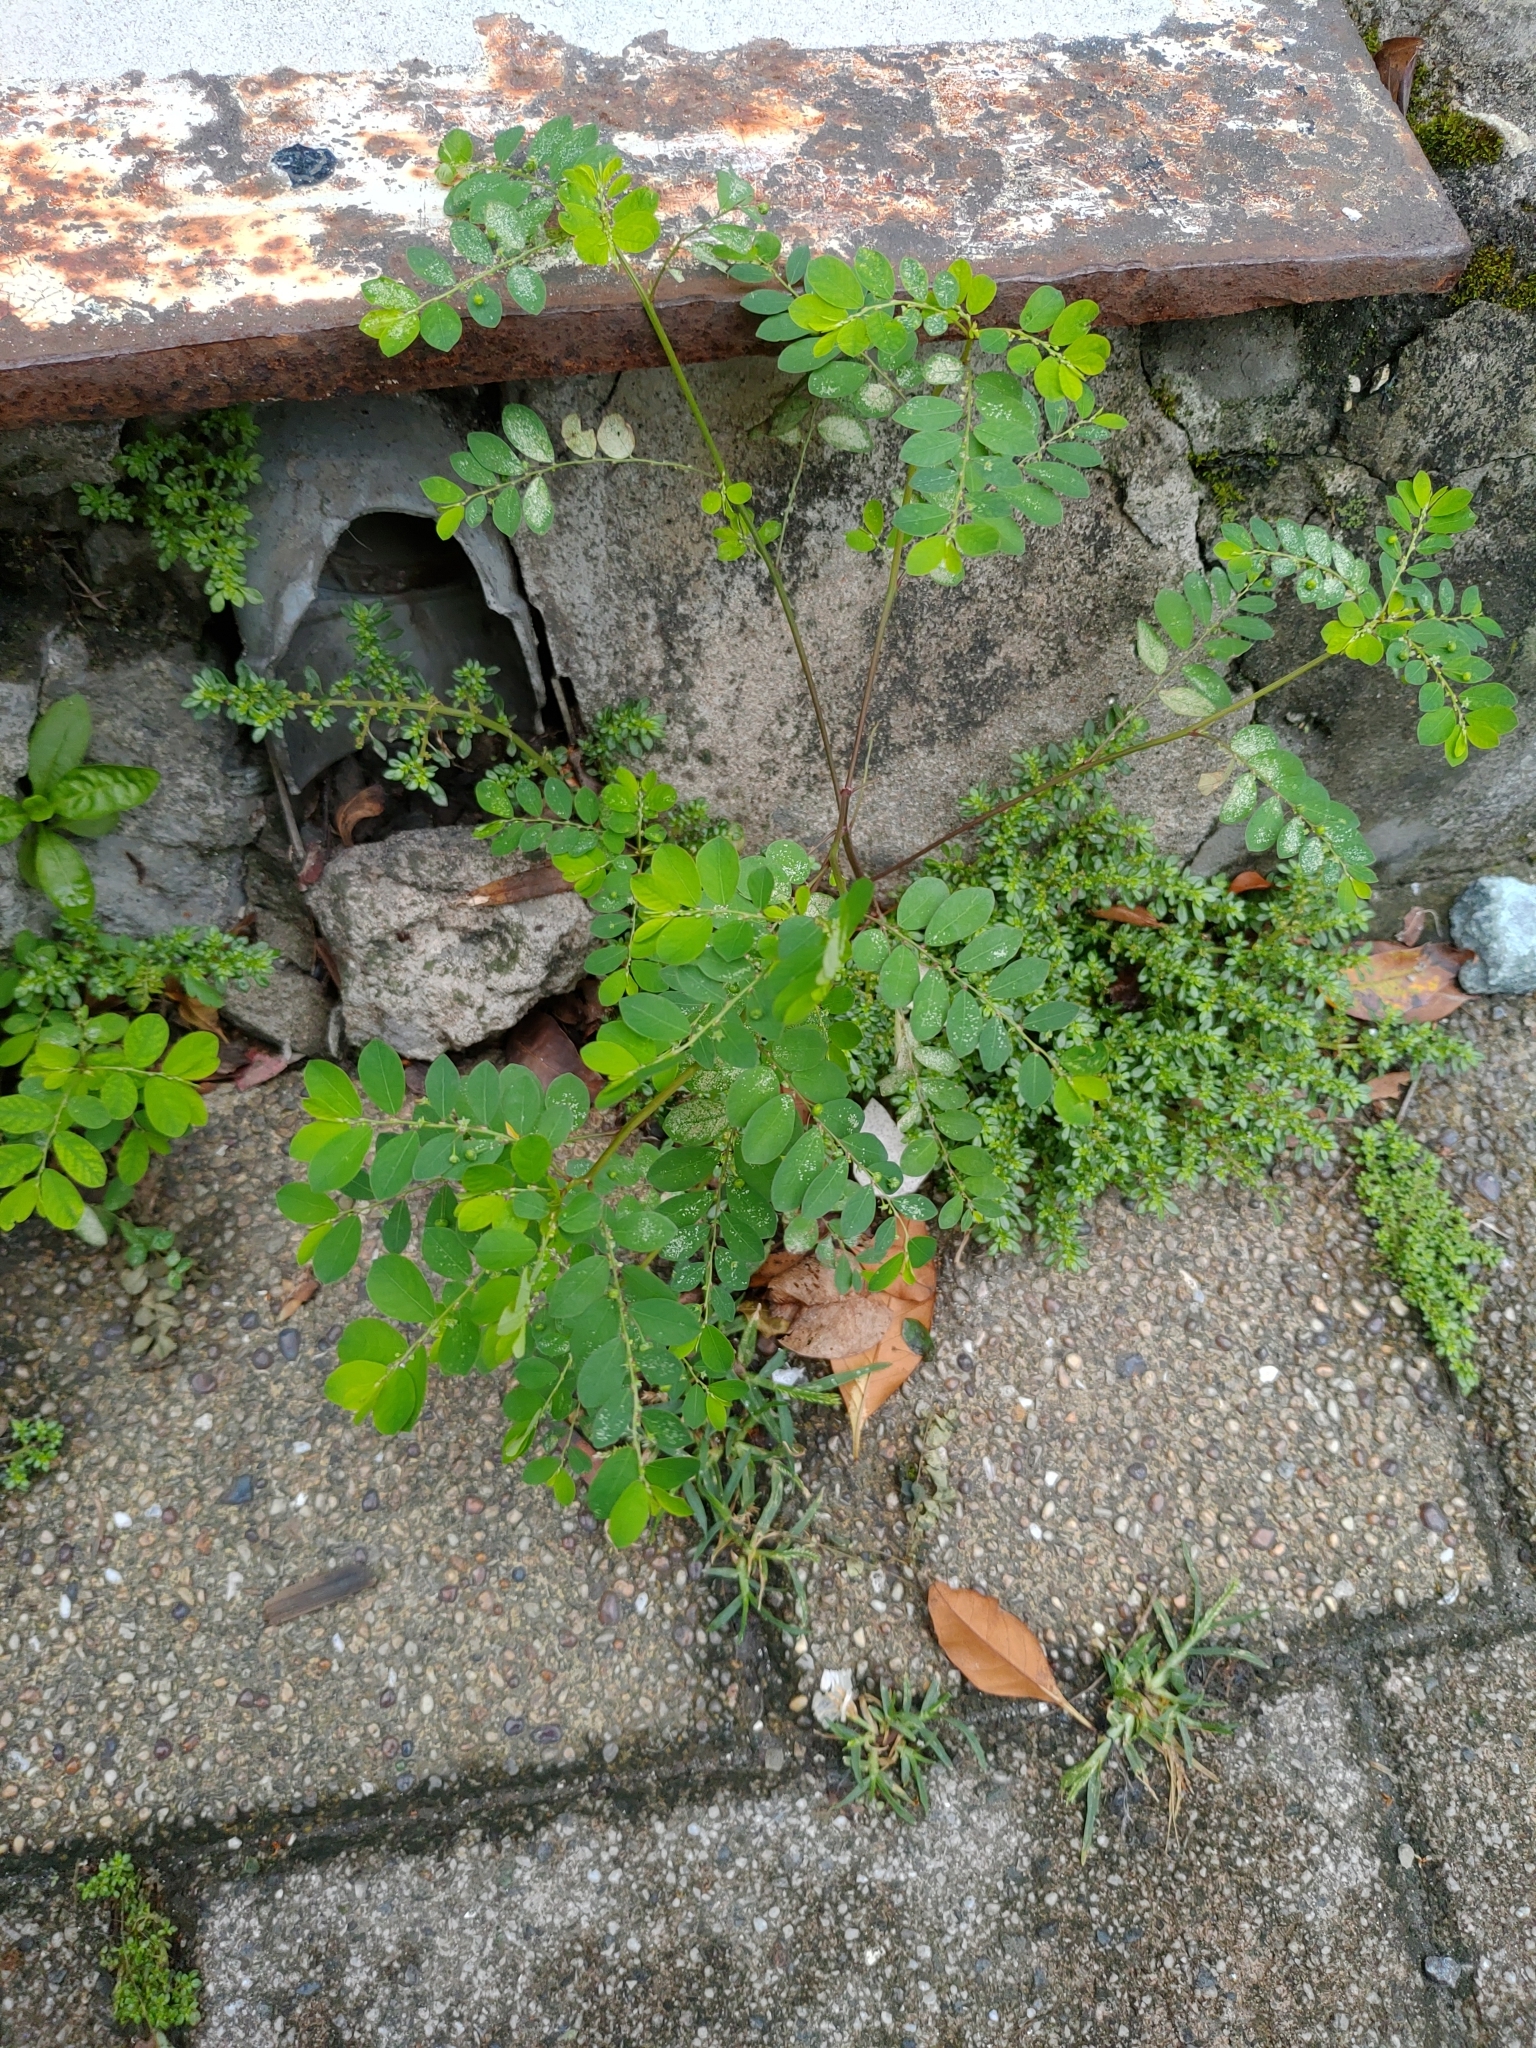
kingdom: Plantae
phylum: Tracheophyta
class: Magnoliopsida
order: Malpighiales
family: Phyllanthaceae
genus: Phyllanthus
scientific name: Phyllanthus tenellus
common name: Mascarene island leaf-flower
